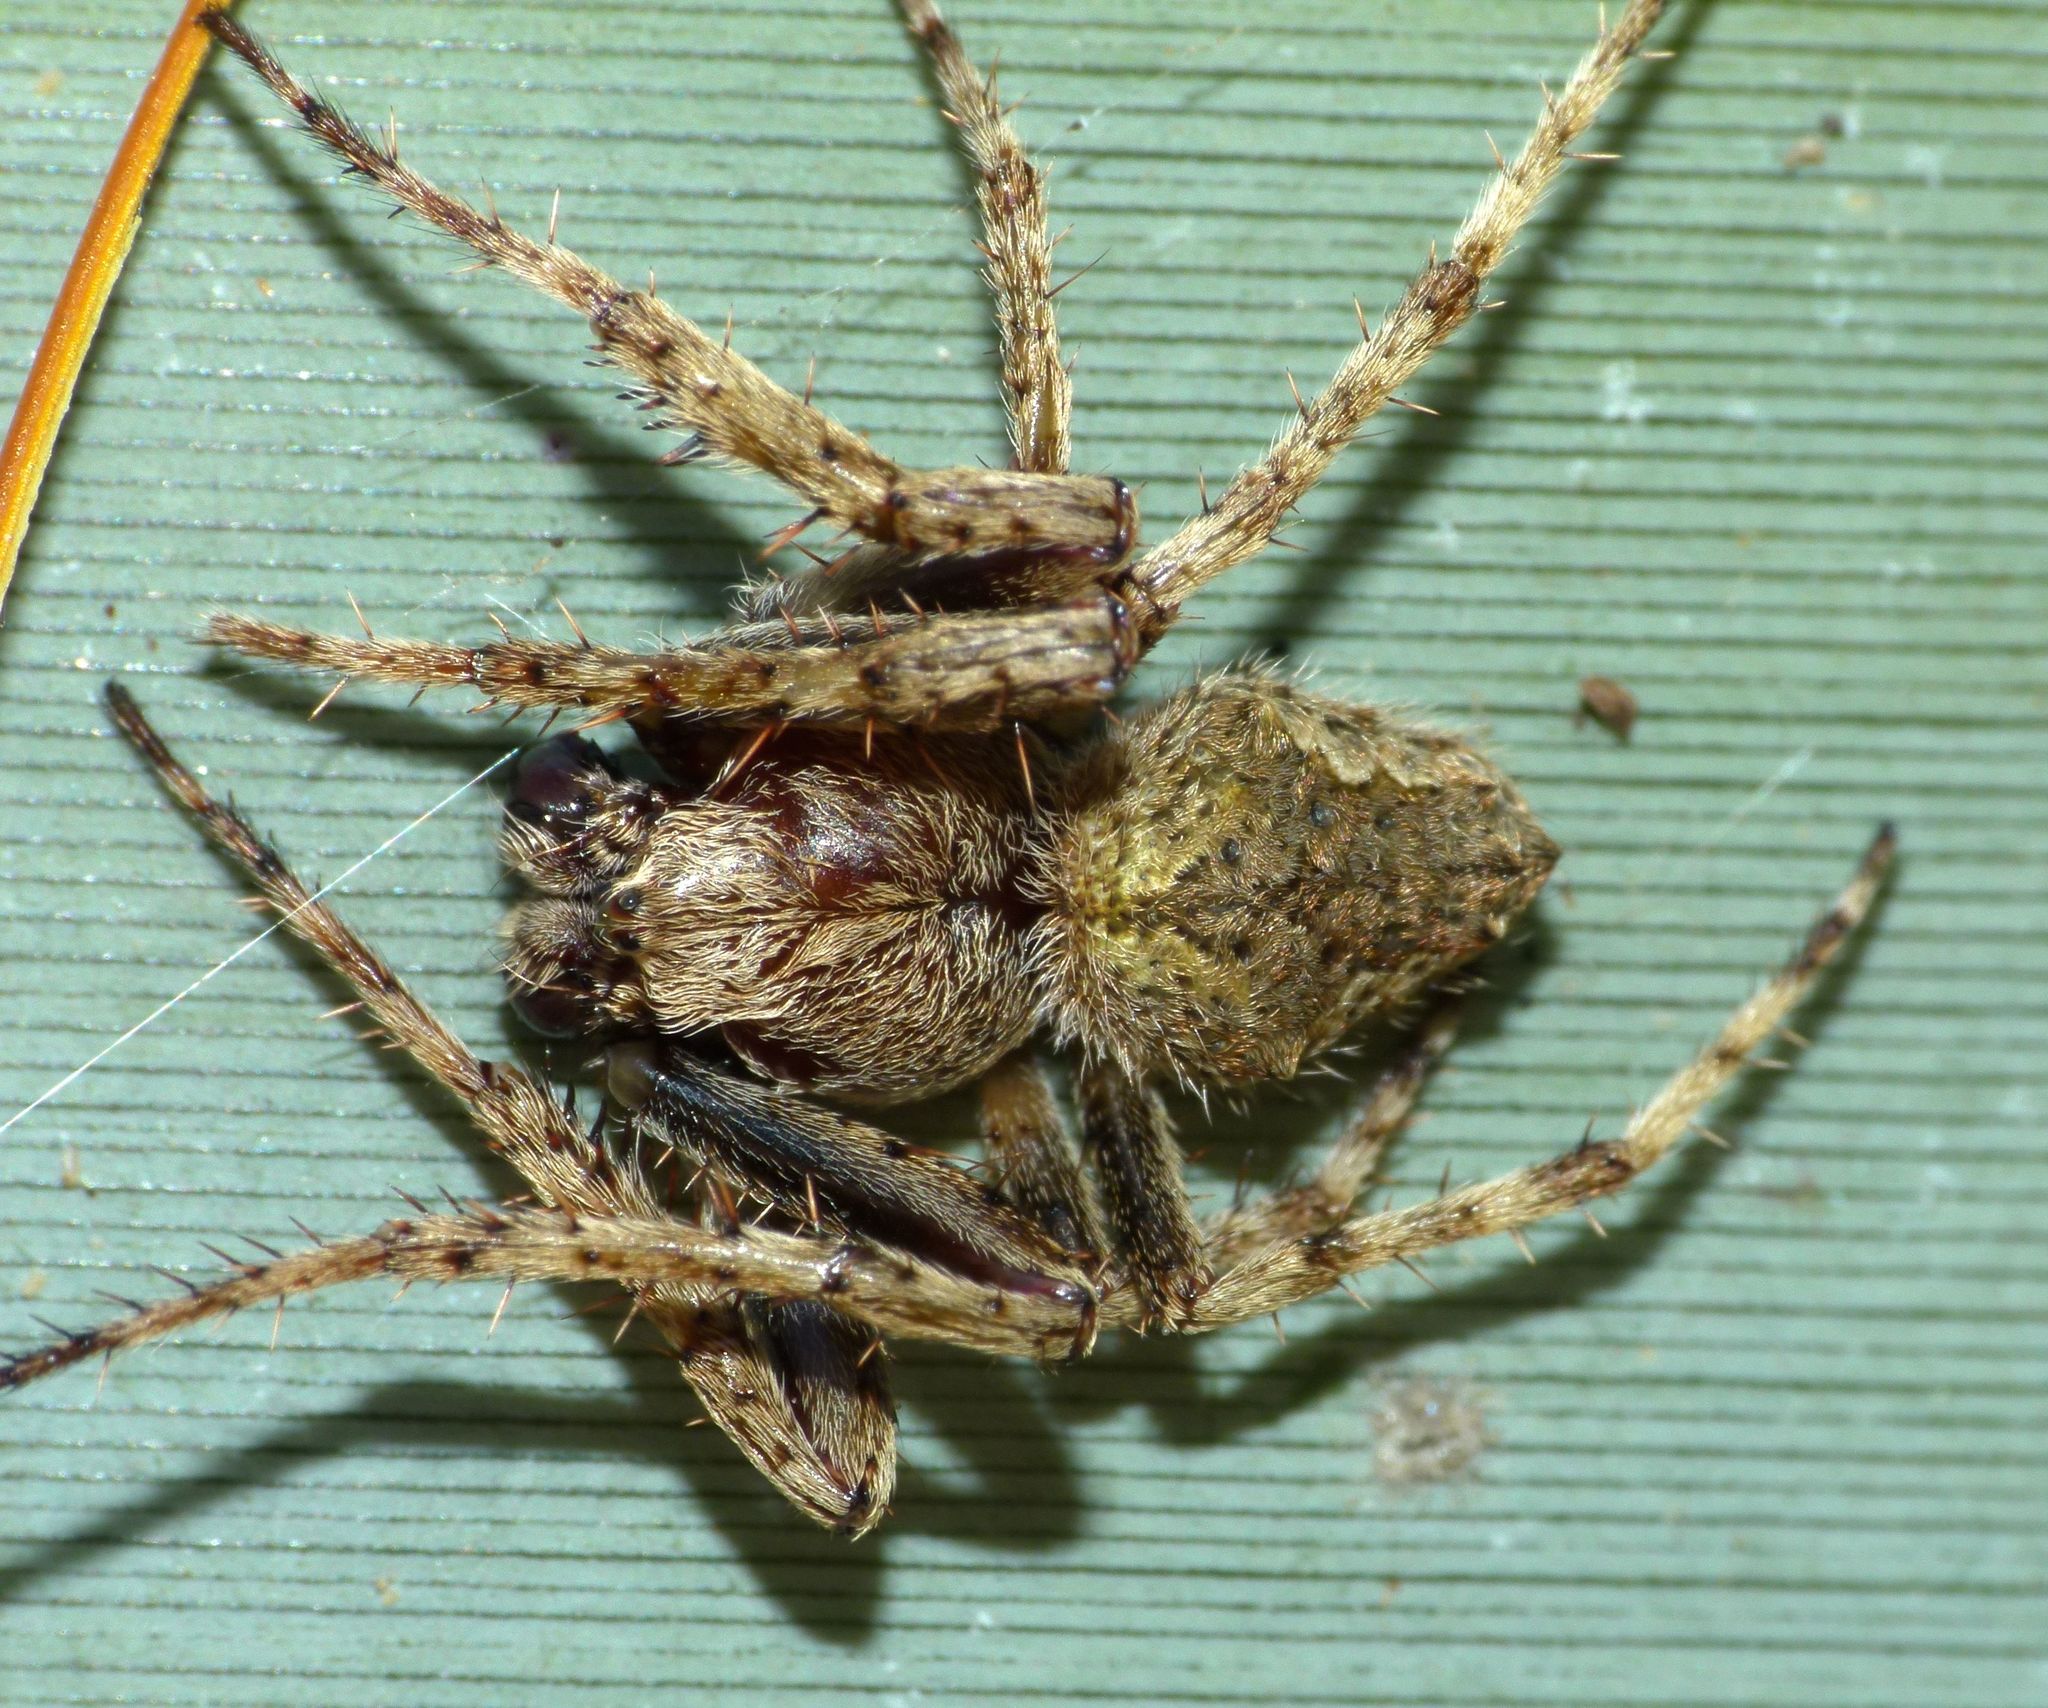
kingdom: Animalia
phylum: Arthropoda
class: Arachnida
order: Araneae
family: Araneidae
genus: Eriophora
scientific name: Eriophora pustulosa
